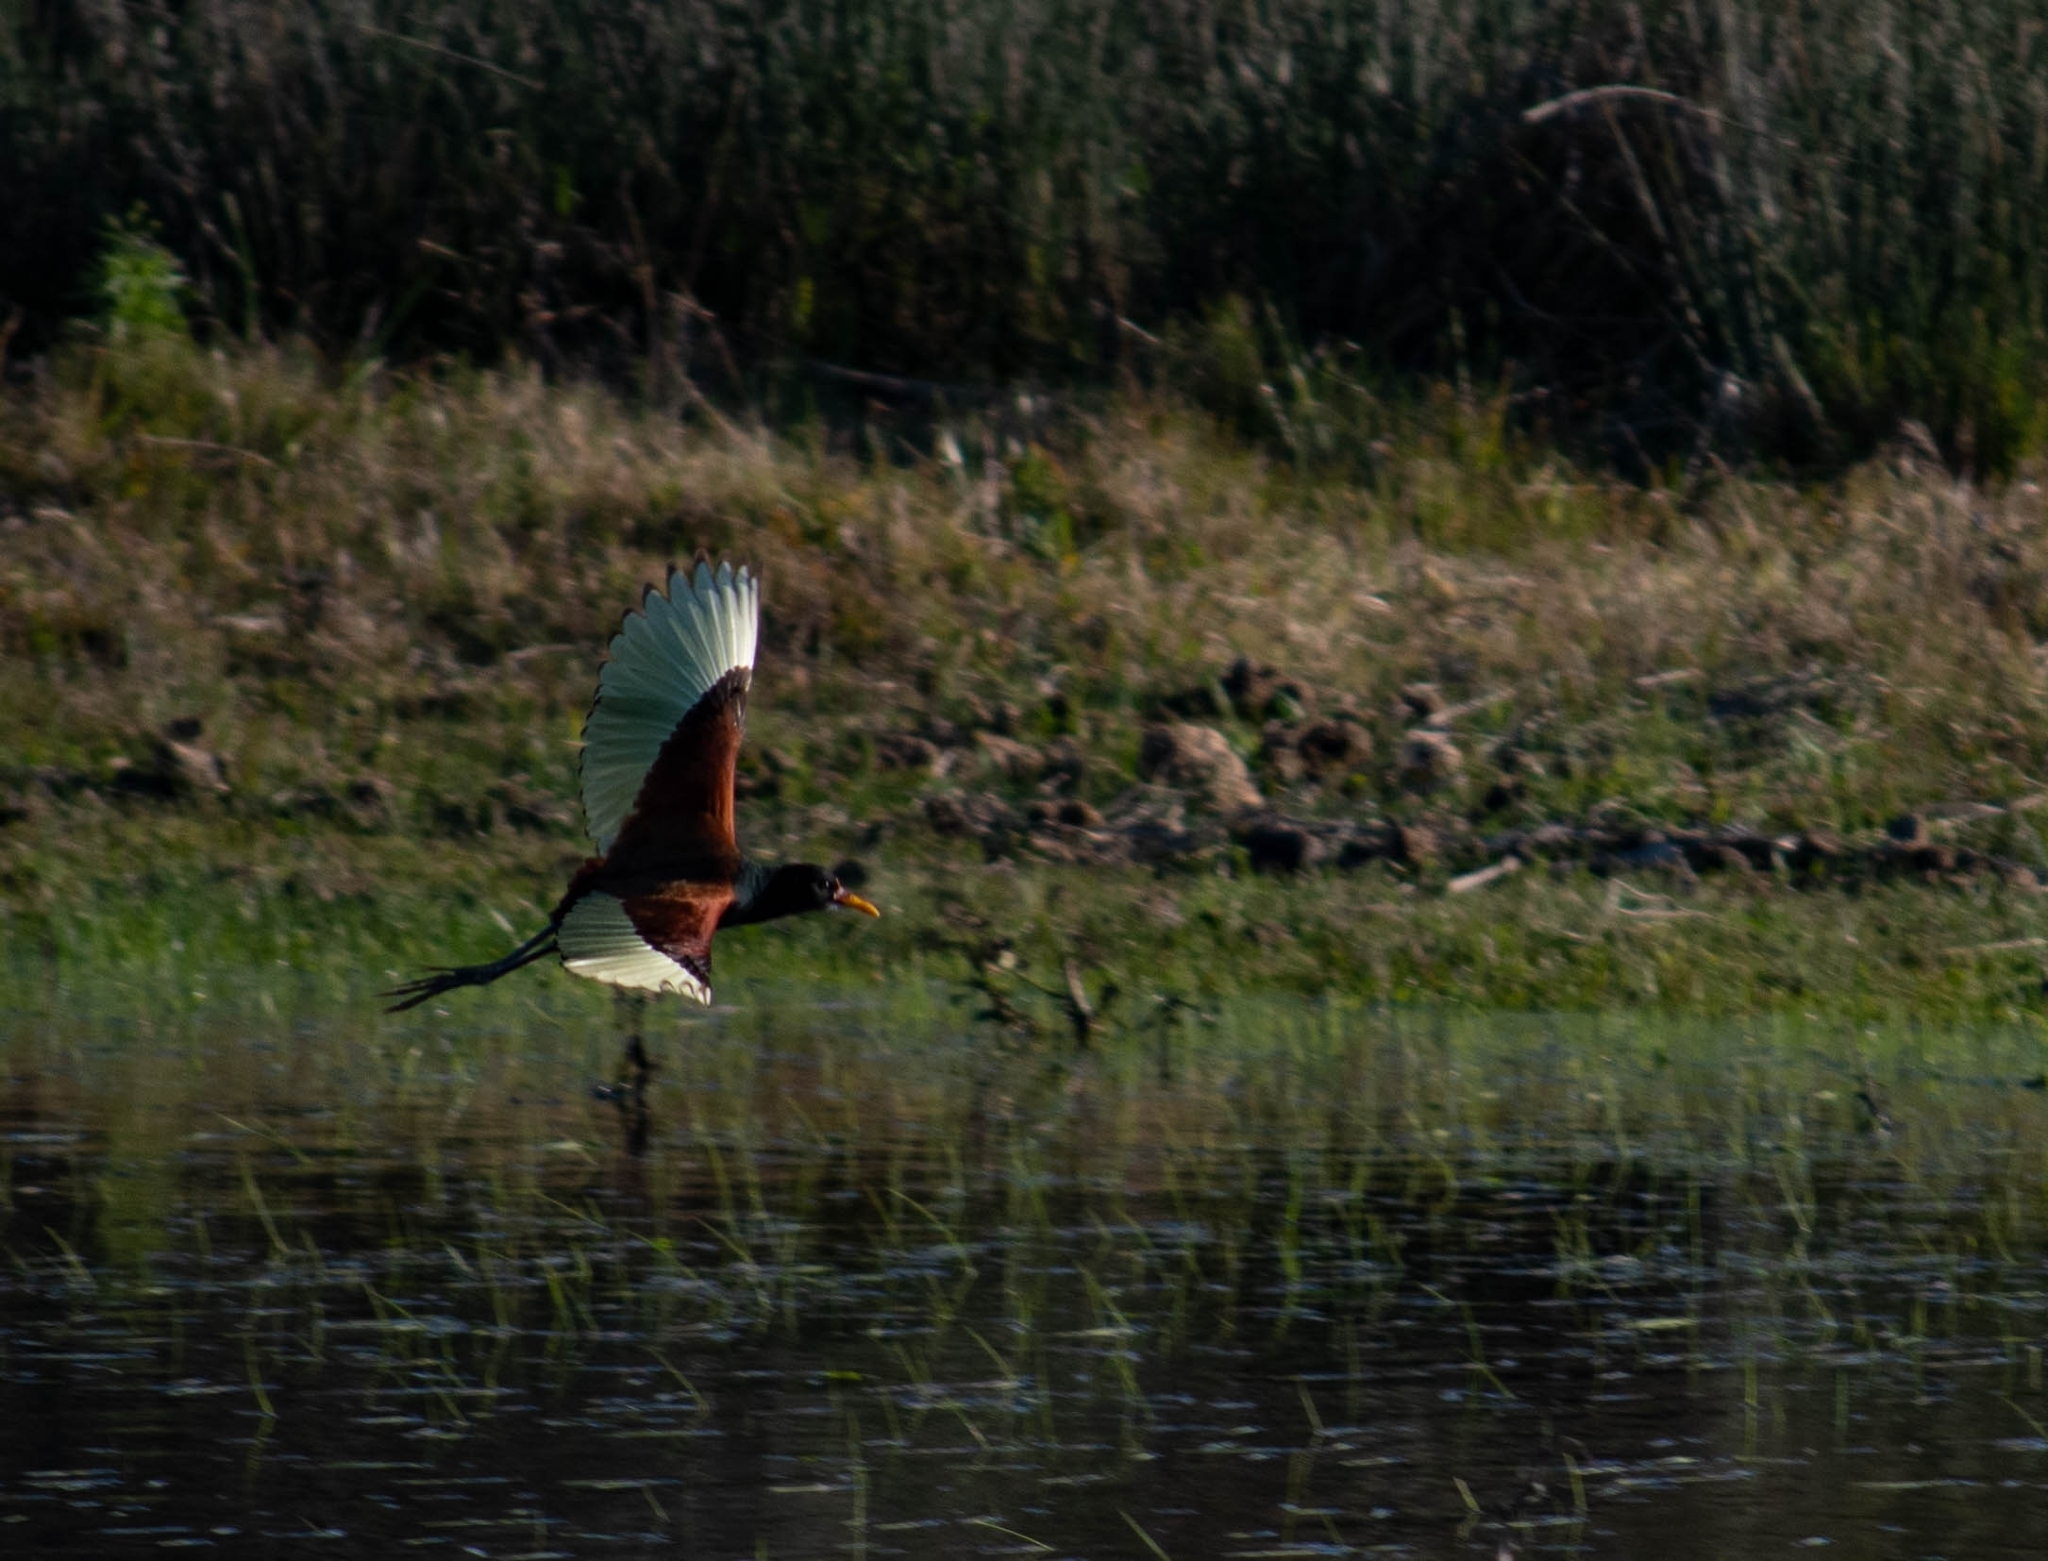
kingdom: Animalia
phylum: Chordata
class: Aves
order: Charadriiformes
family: Jacanidae
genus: Jacana
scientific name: Jacana jacana
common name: Wattled jacana
